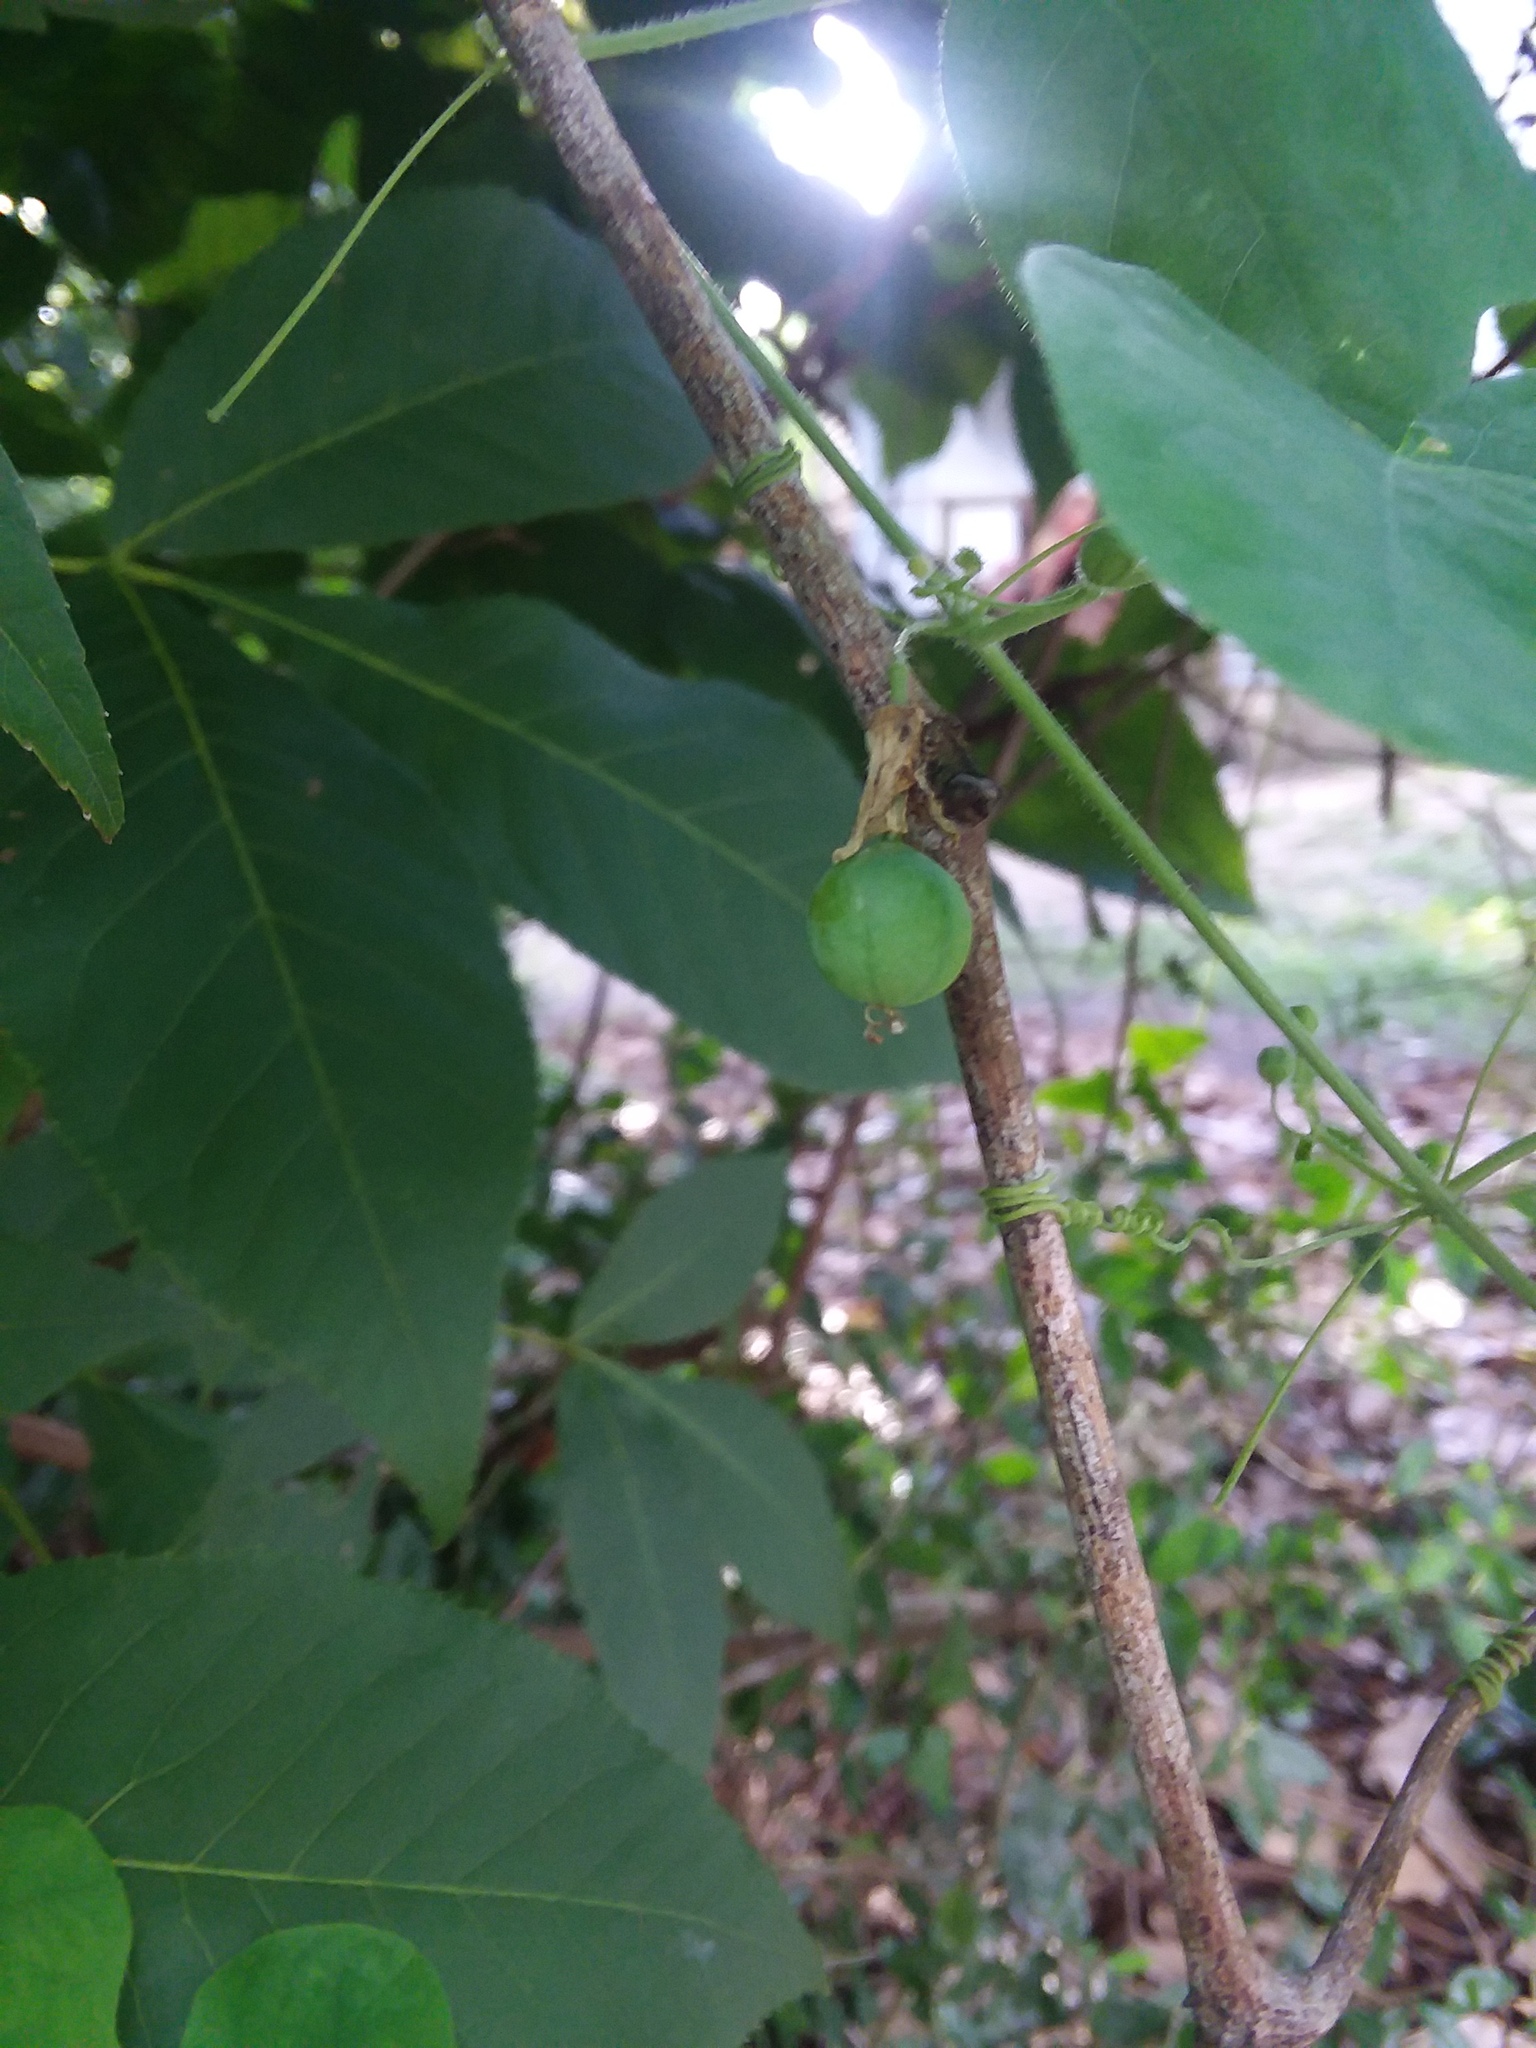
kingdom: Plantae
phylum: Tracheophyta
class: Magnoliopsida
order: Malpighiales
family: Passifloraceae
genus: Passiflora
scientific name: Passiflora lutea
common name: Yellow passionflower
